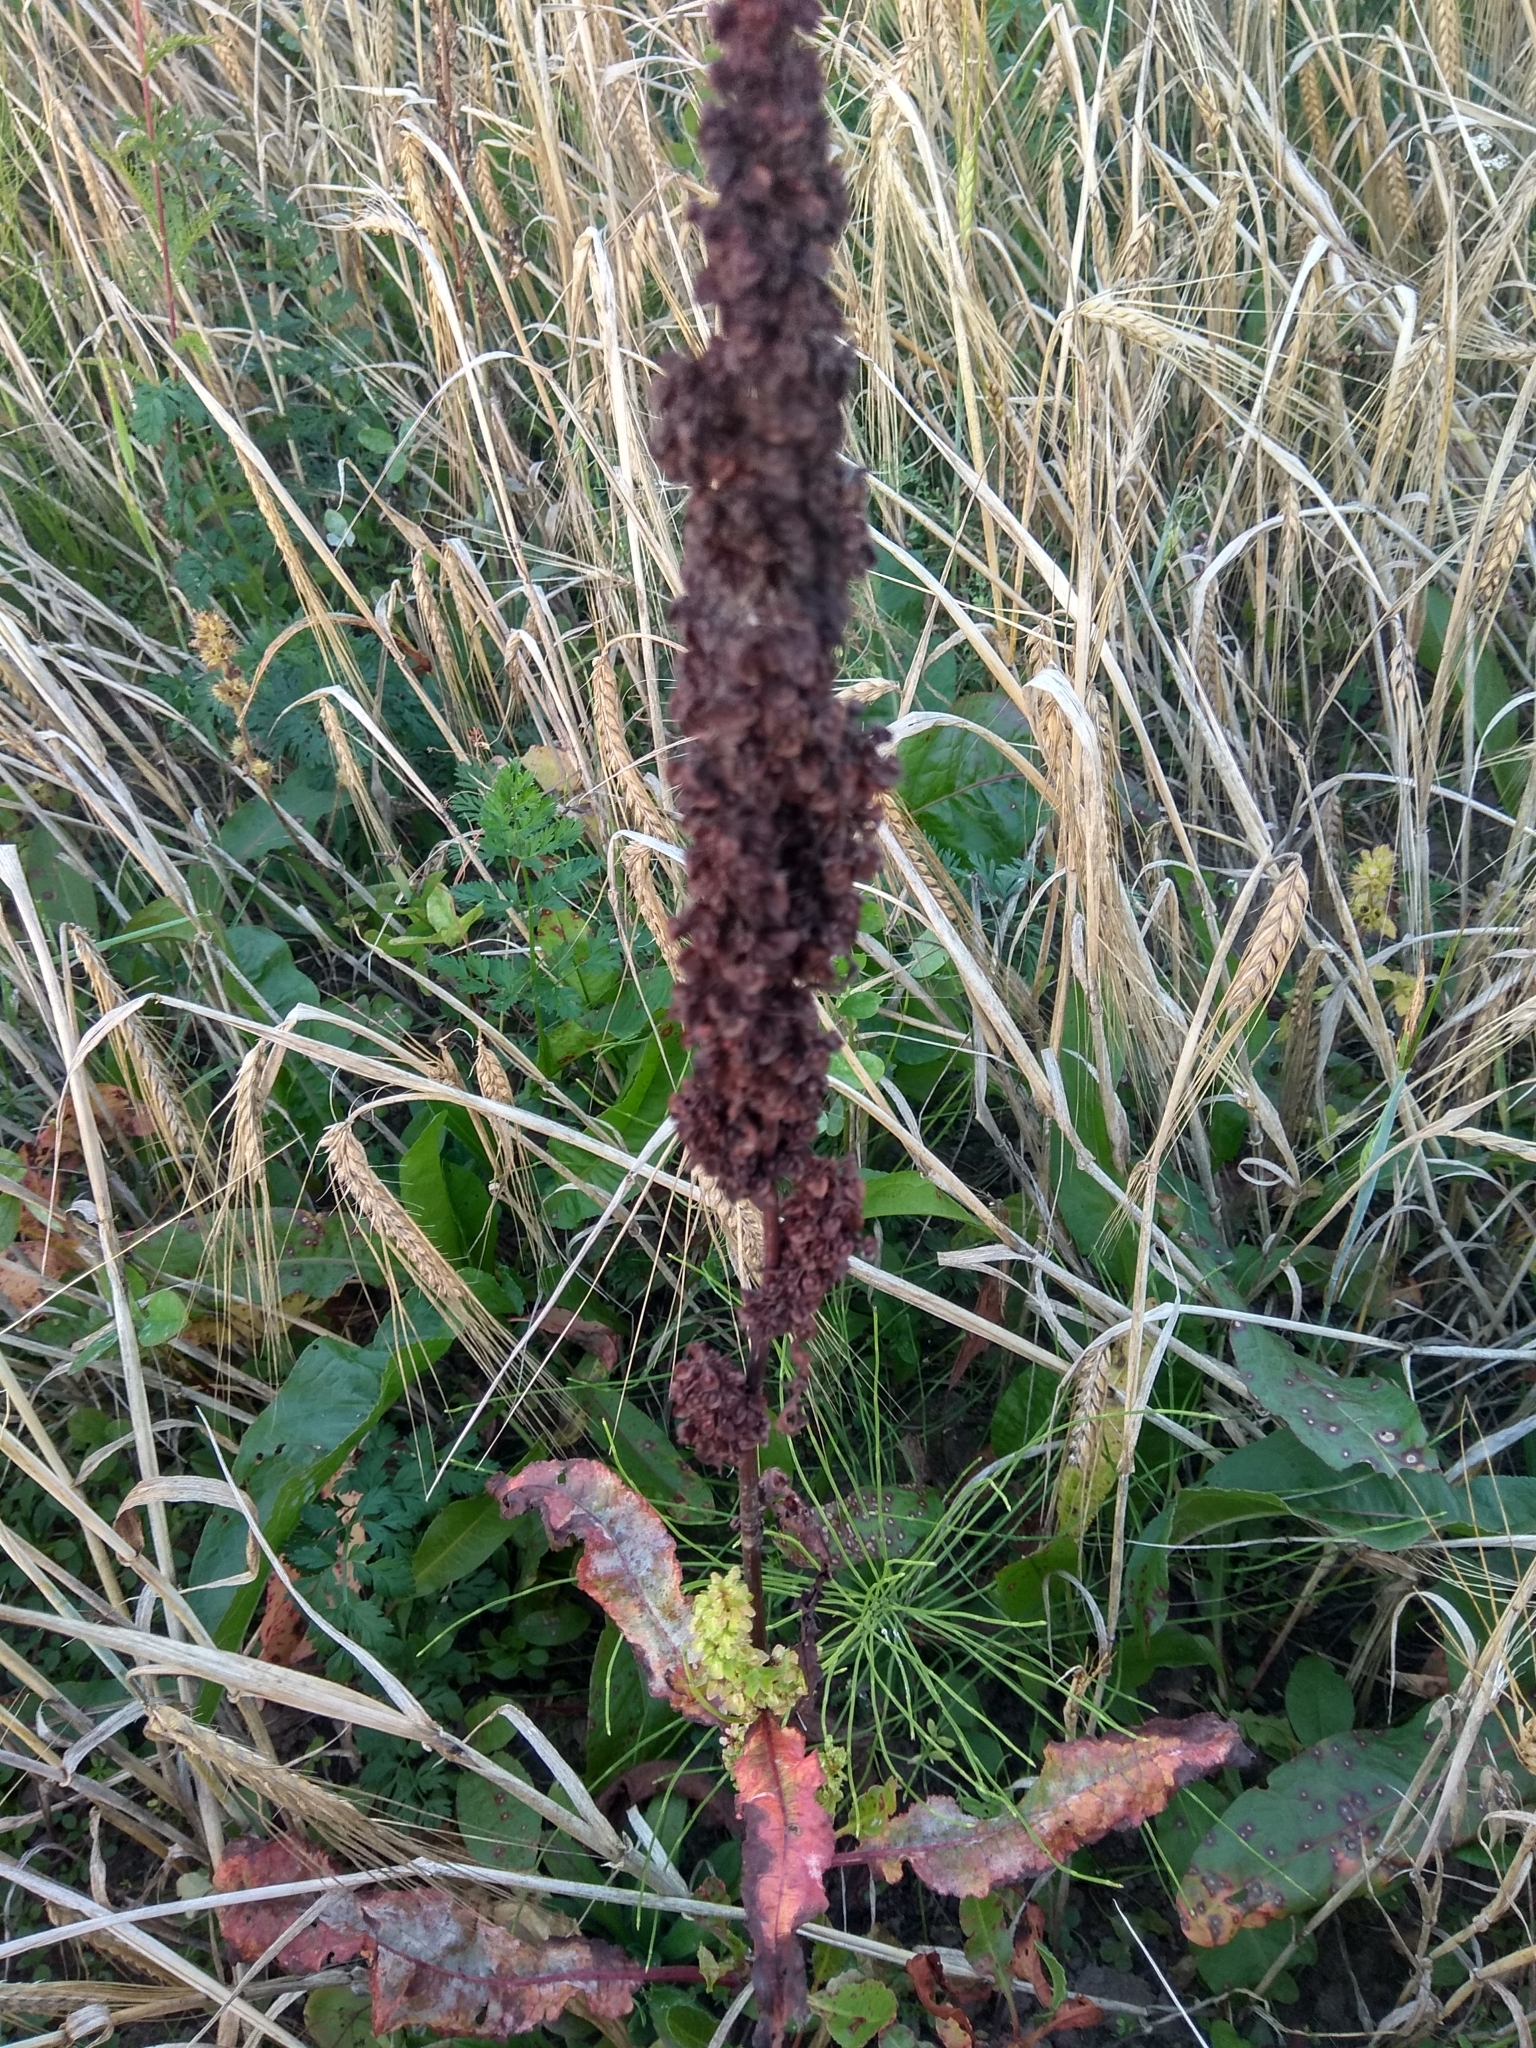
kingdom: Plantae
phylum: Tracheophyta
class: Magnoliopsida
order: Caryophyllales
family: Polygonaceae
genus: Rumex
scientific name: Rumex crispus
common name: Curled dock
